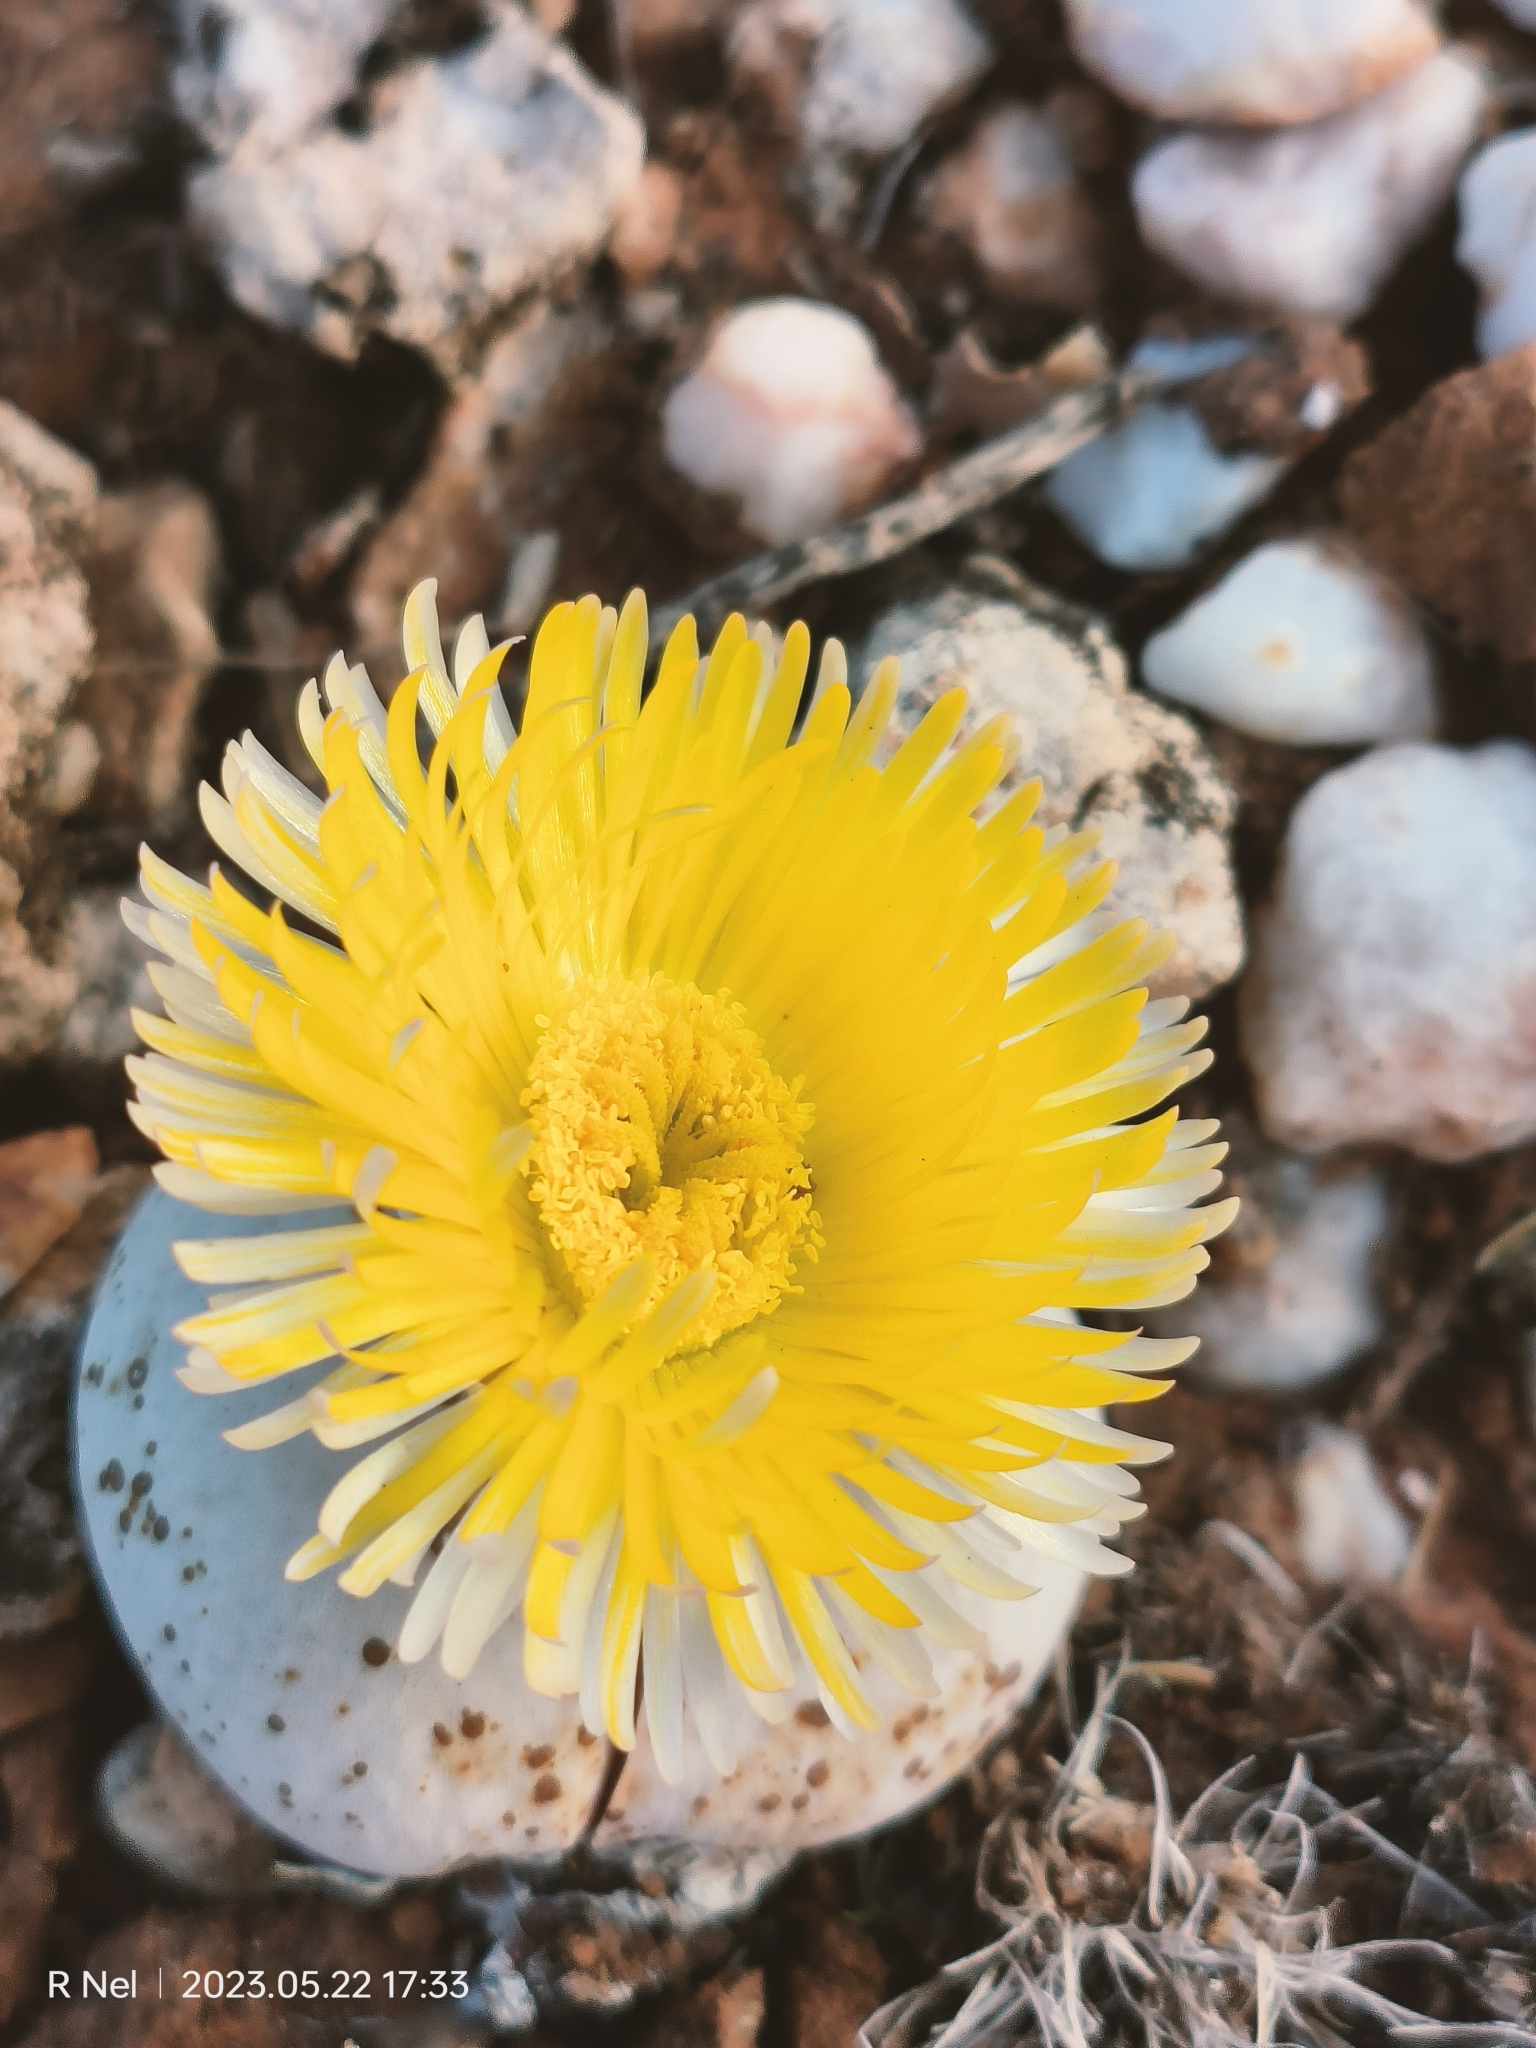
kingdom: Plantae
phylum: Tracheophyta
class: Magnoliopsida
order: Caryophyllales
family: Aizoaceae
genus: Dinteranthus
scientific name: Dinteranthus pole-evansii
